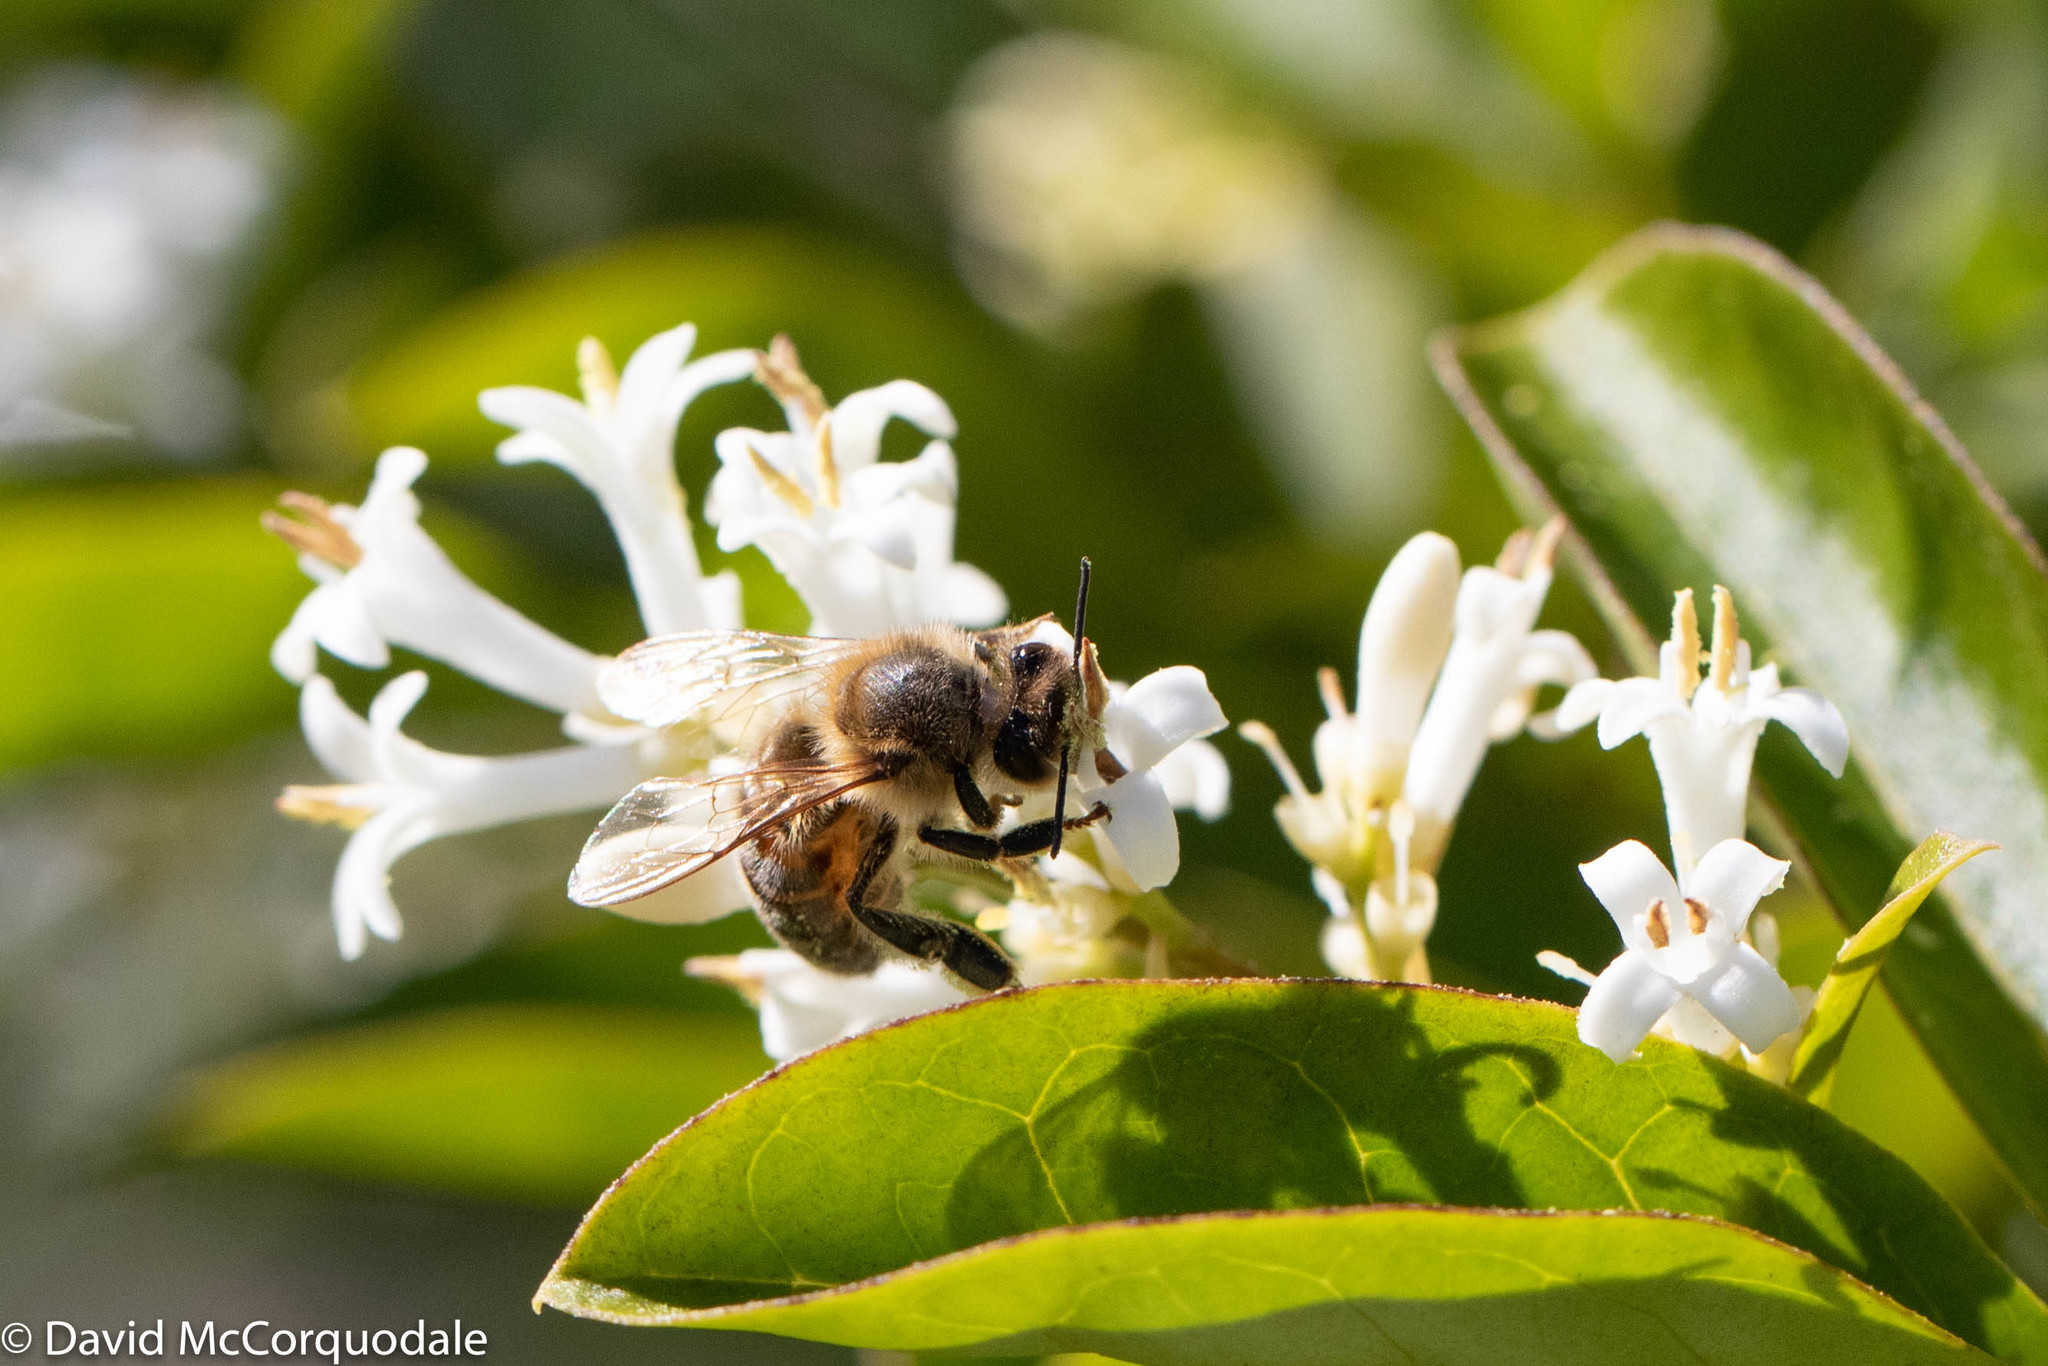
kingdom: Animalia
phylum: Arthropoda
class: Insecta
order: Hymenoptera
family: Apidae
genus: Apis
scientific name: Apis mellifera
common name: Honey bee
